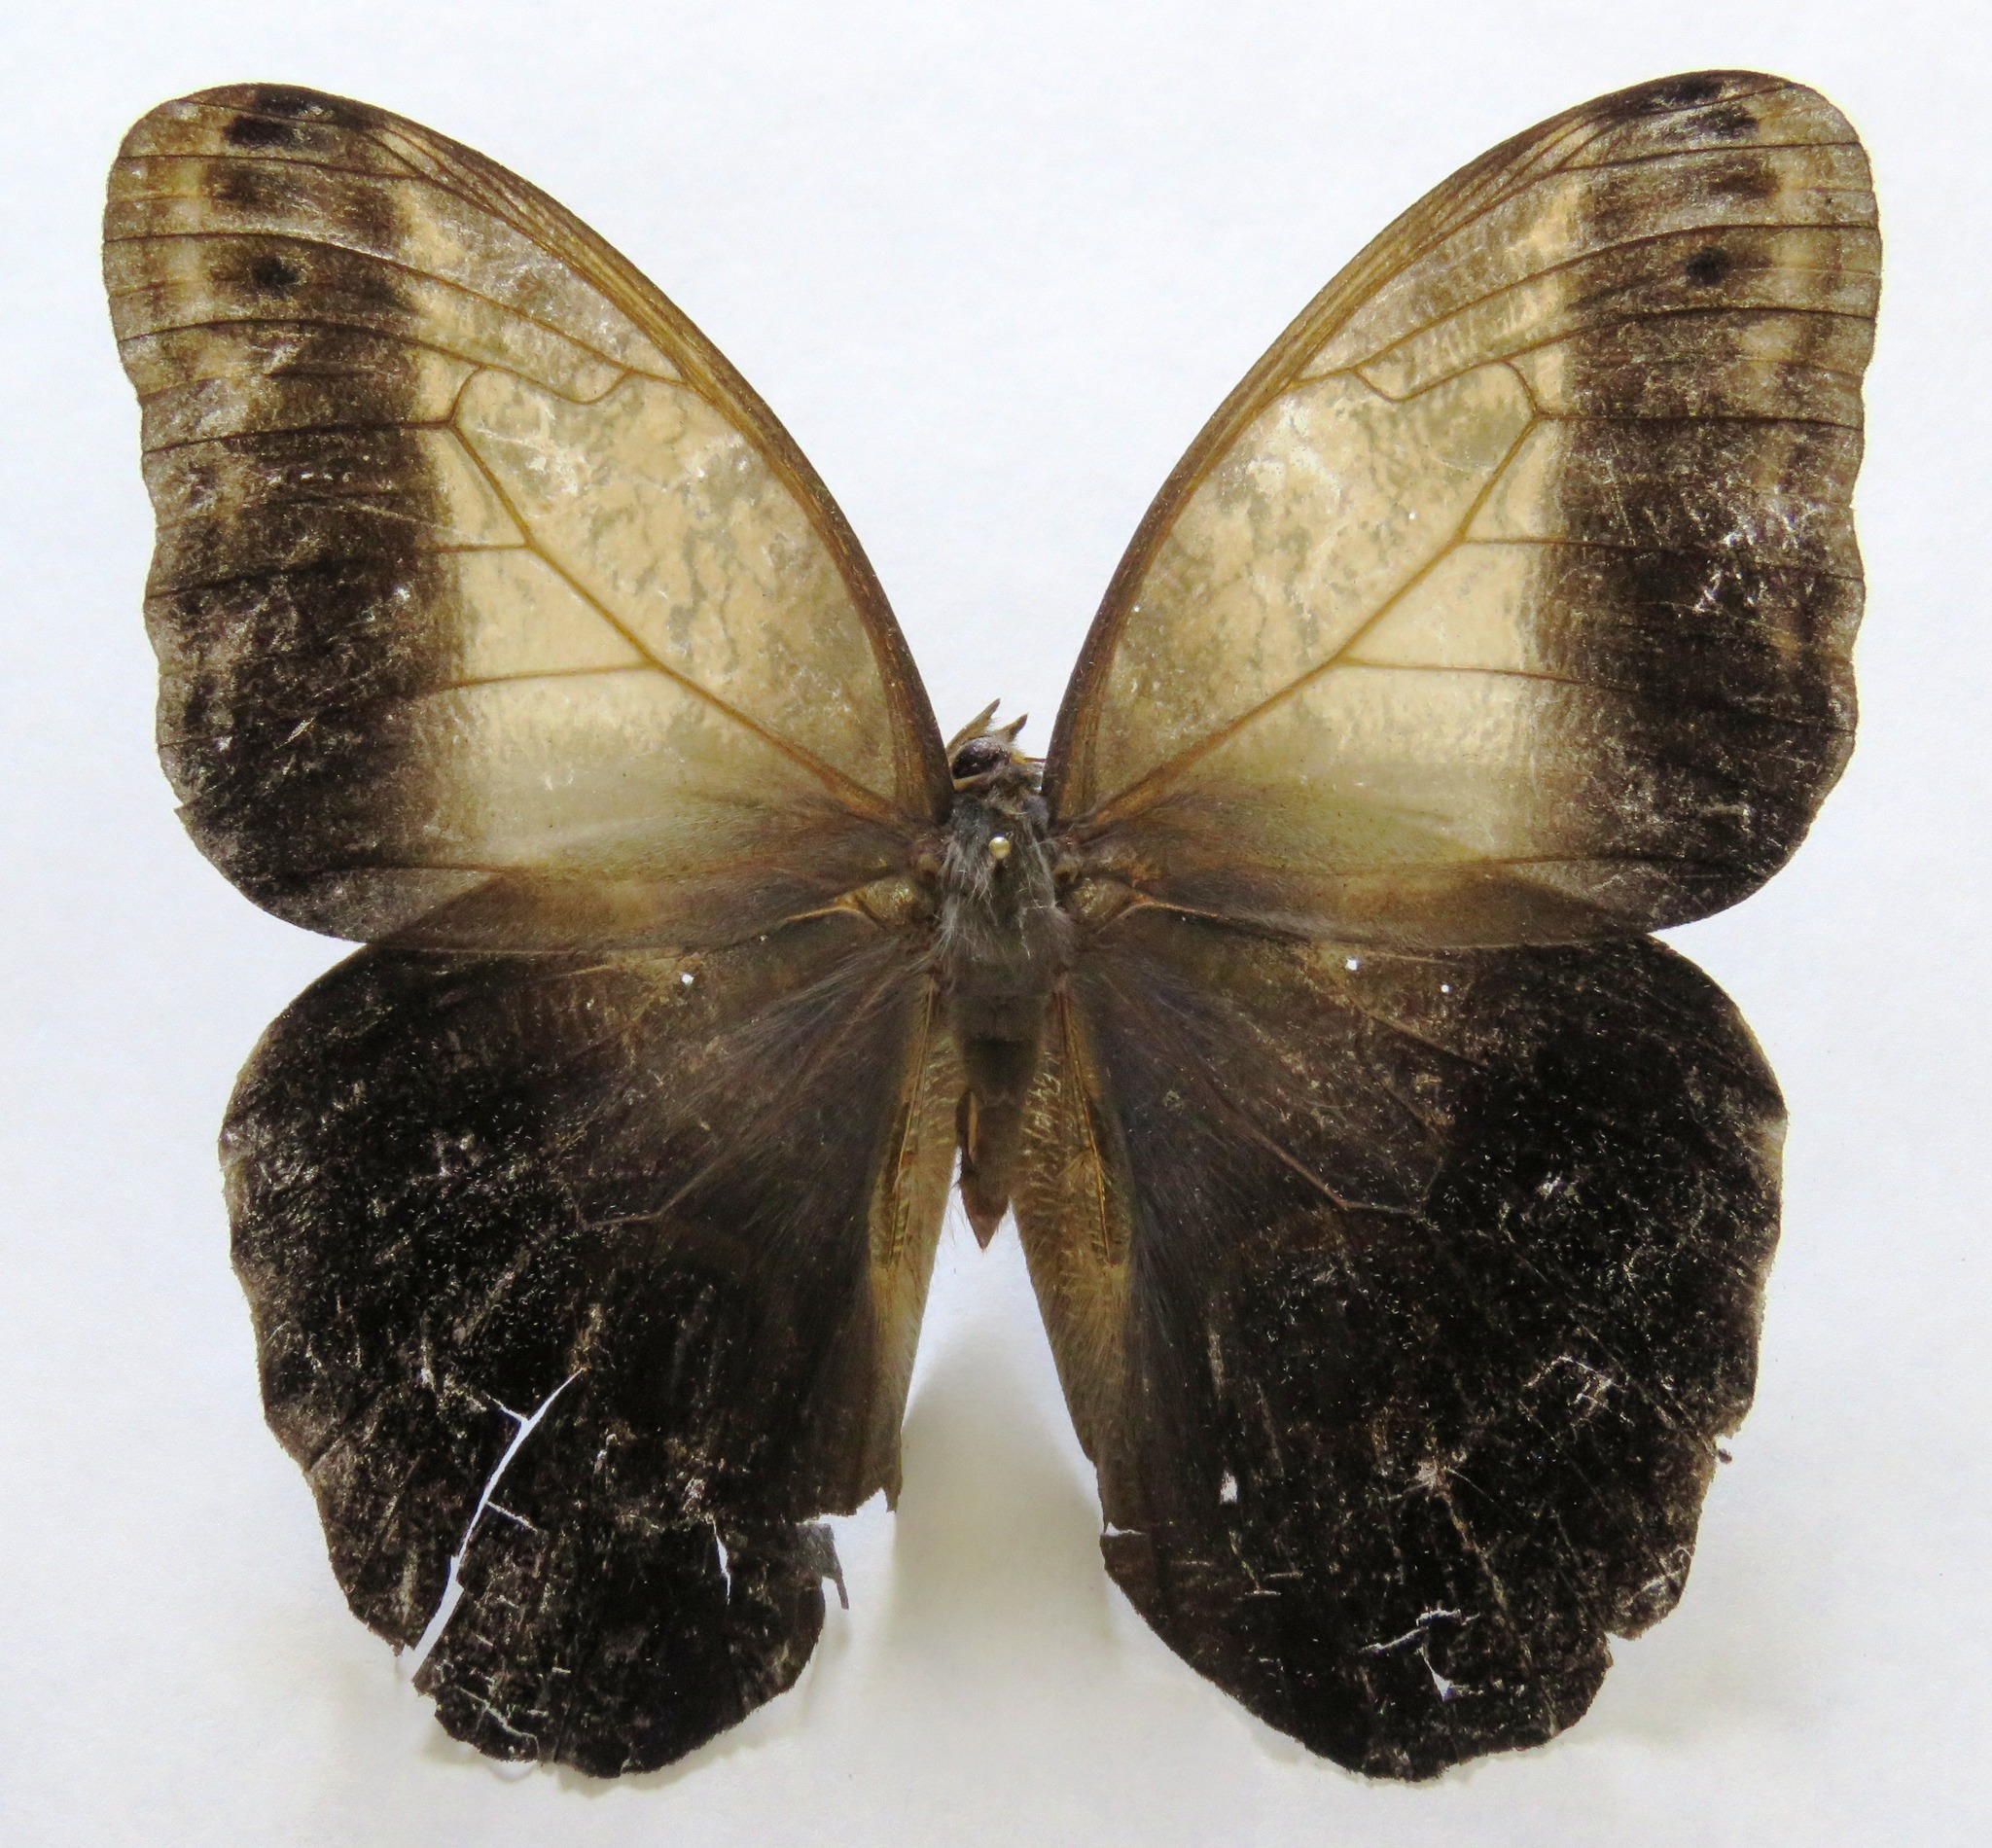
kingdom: Animalia
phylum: Arthropoda
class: Insecta
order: Lepidoptera
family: Nymphalidae
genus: Caligo
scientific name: Caligo telamonius
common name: Pale owl-butterfly
